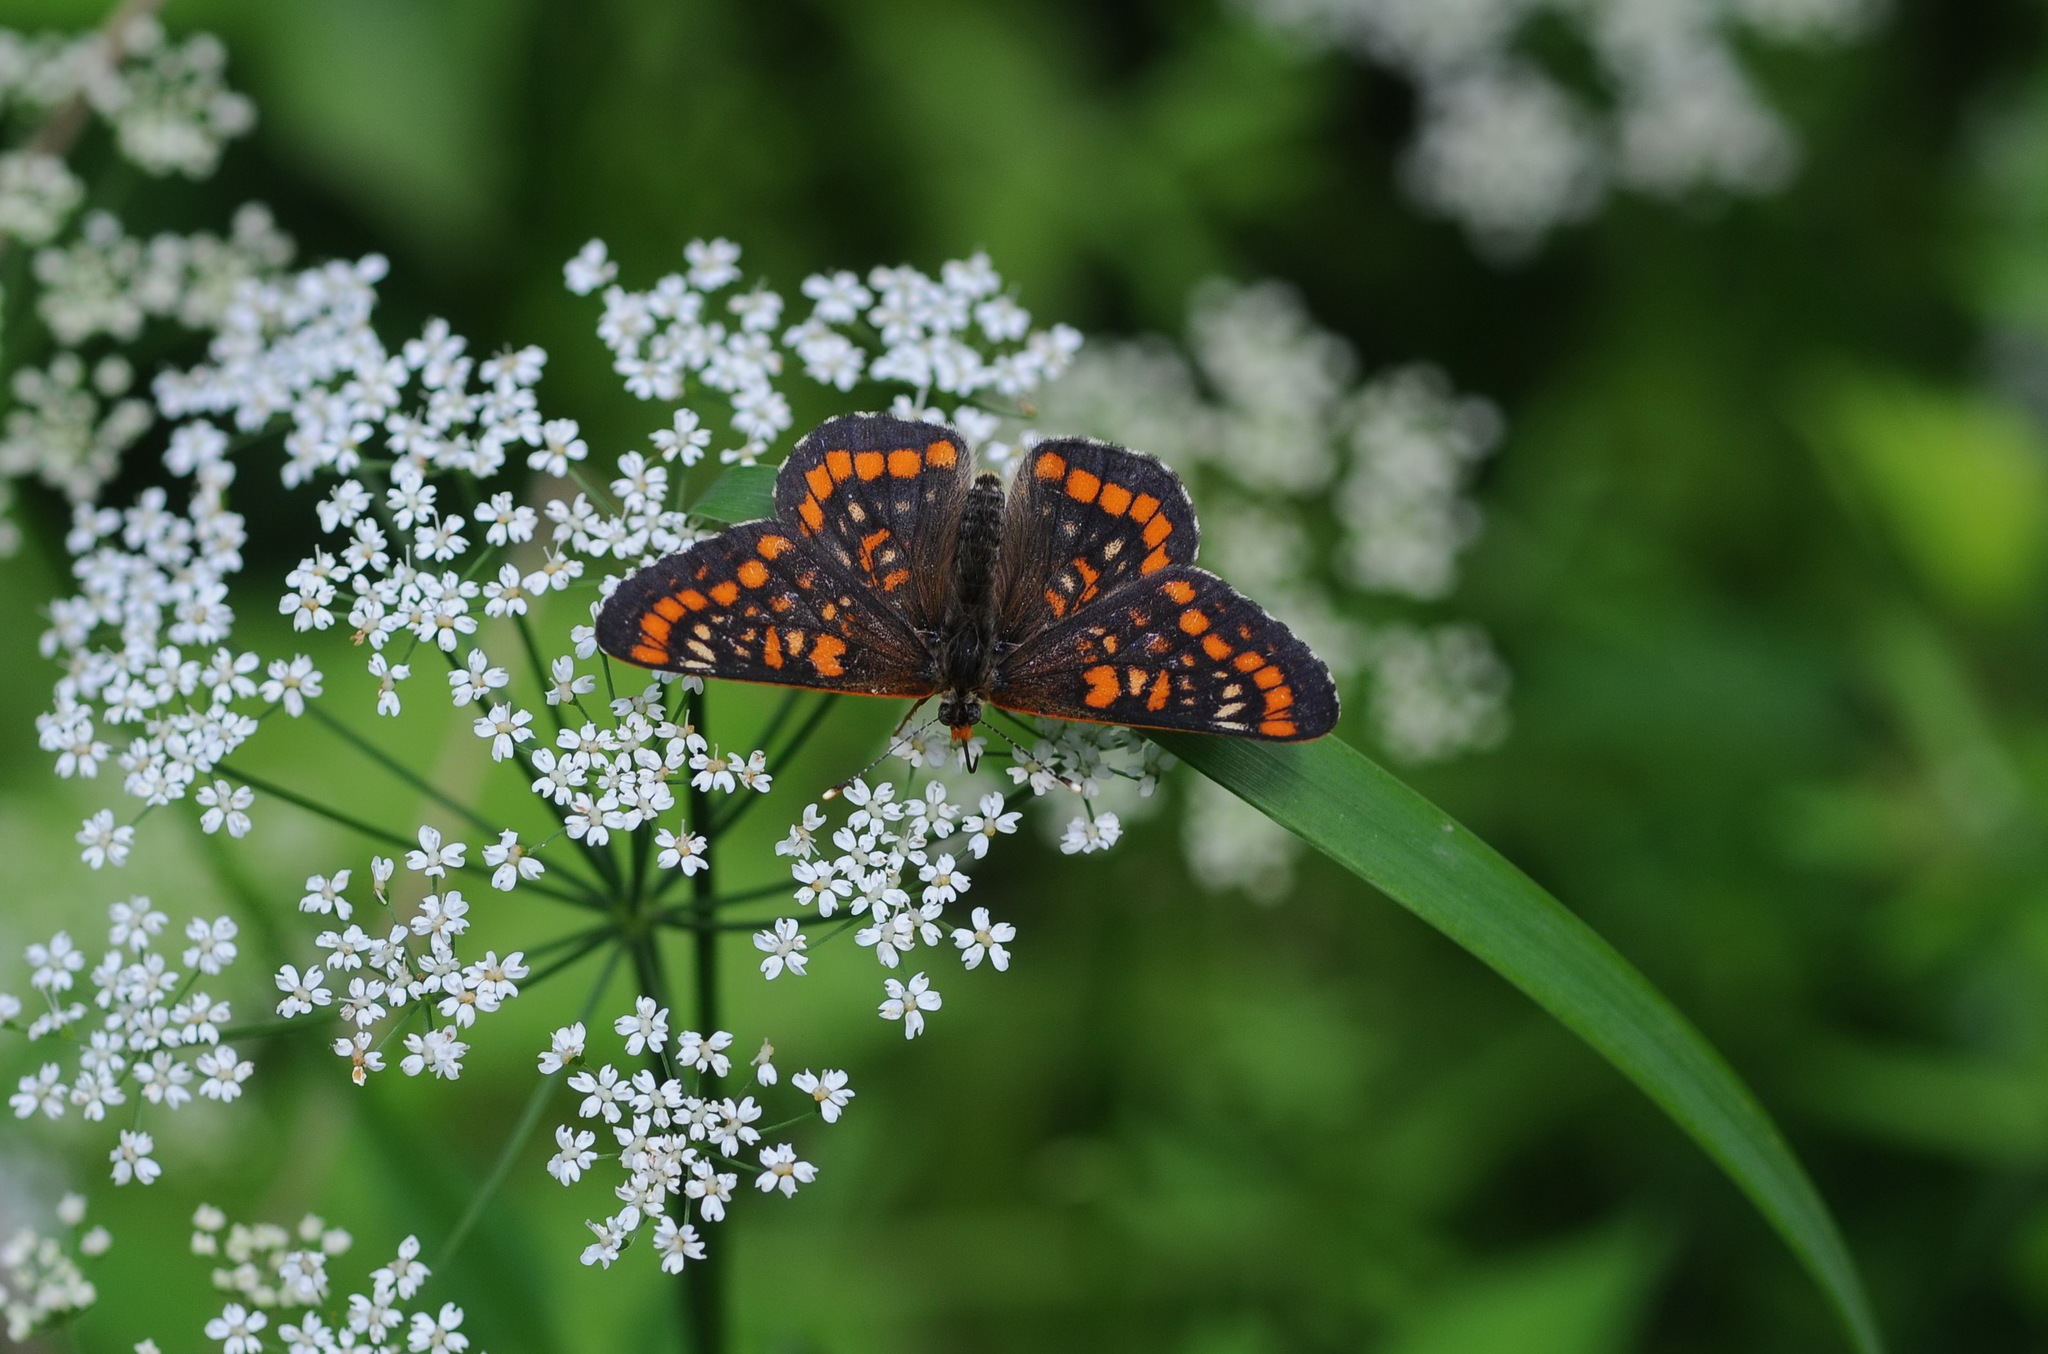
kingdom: Animalia
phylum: Arthropoda
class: Insecta
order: Lepidoptera
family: Nymphalidae
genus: Euphydryas
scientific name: Euphydryas maturna
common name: Scarce fritillary
